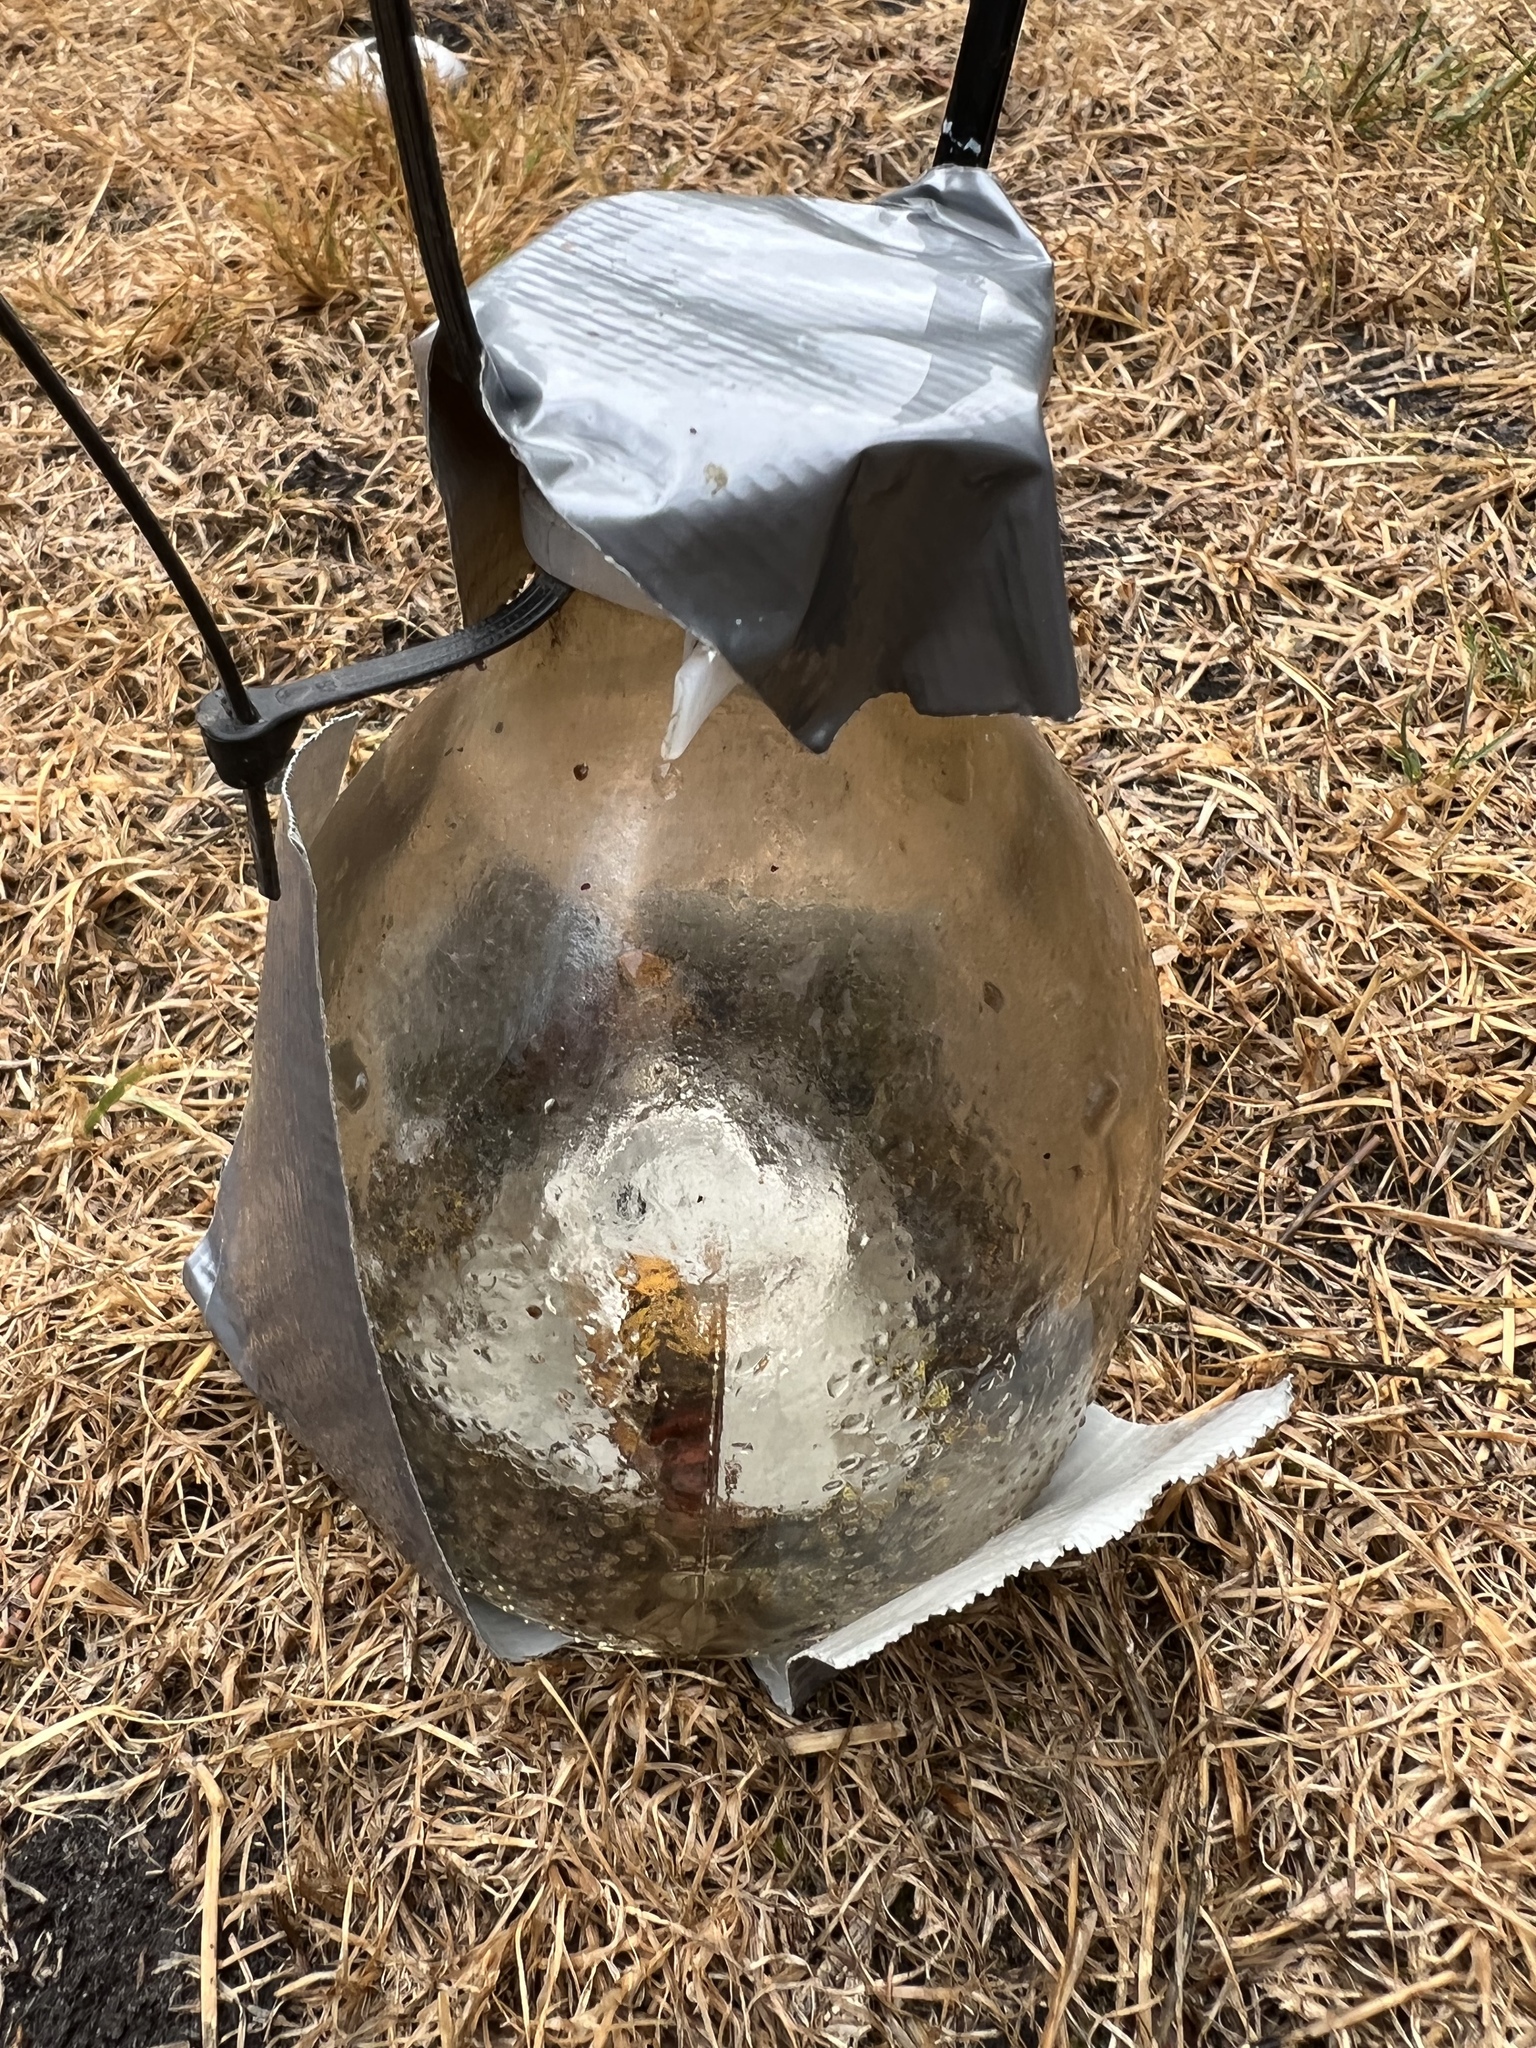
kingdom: Animalia
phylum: Arthropoda
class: Insecta
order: Hymenoptera
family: Vespidae
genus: Vespa
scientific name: Vespa crabro
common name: Hornet
